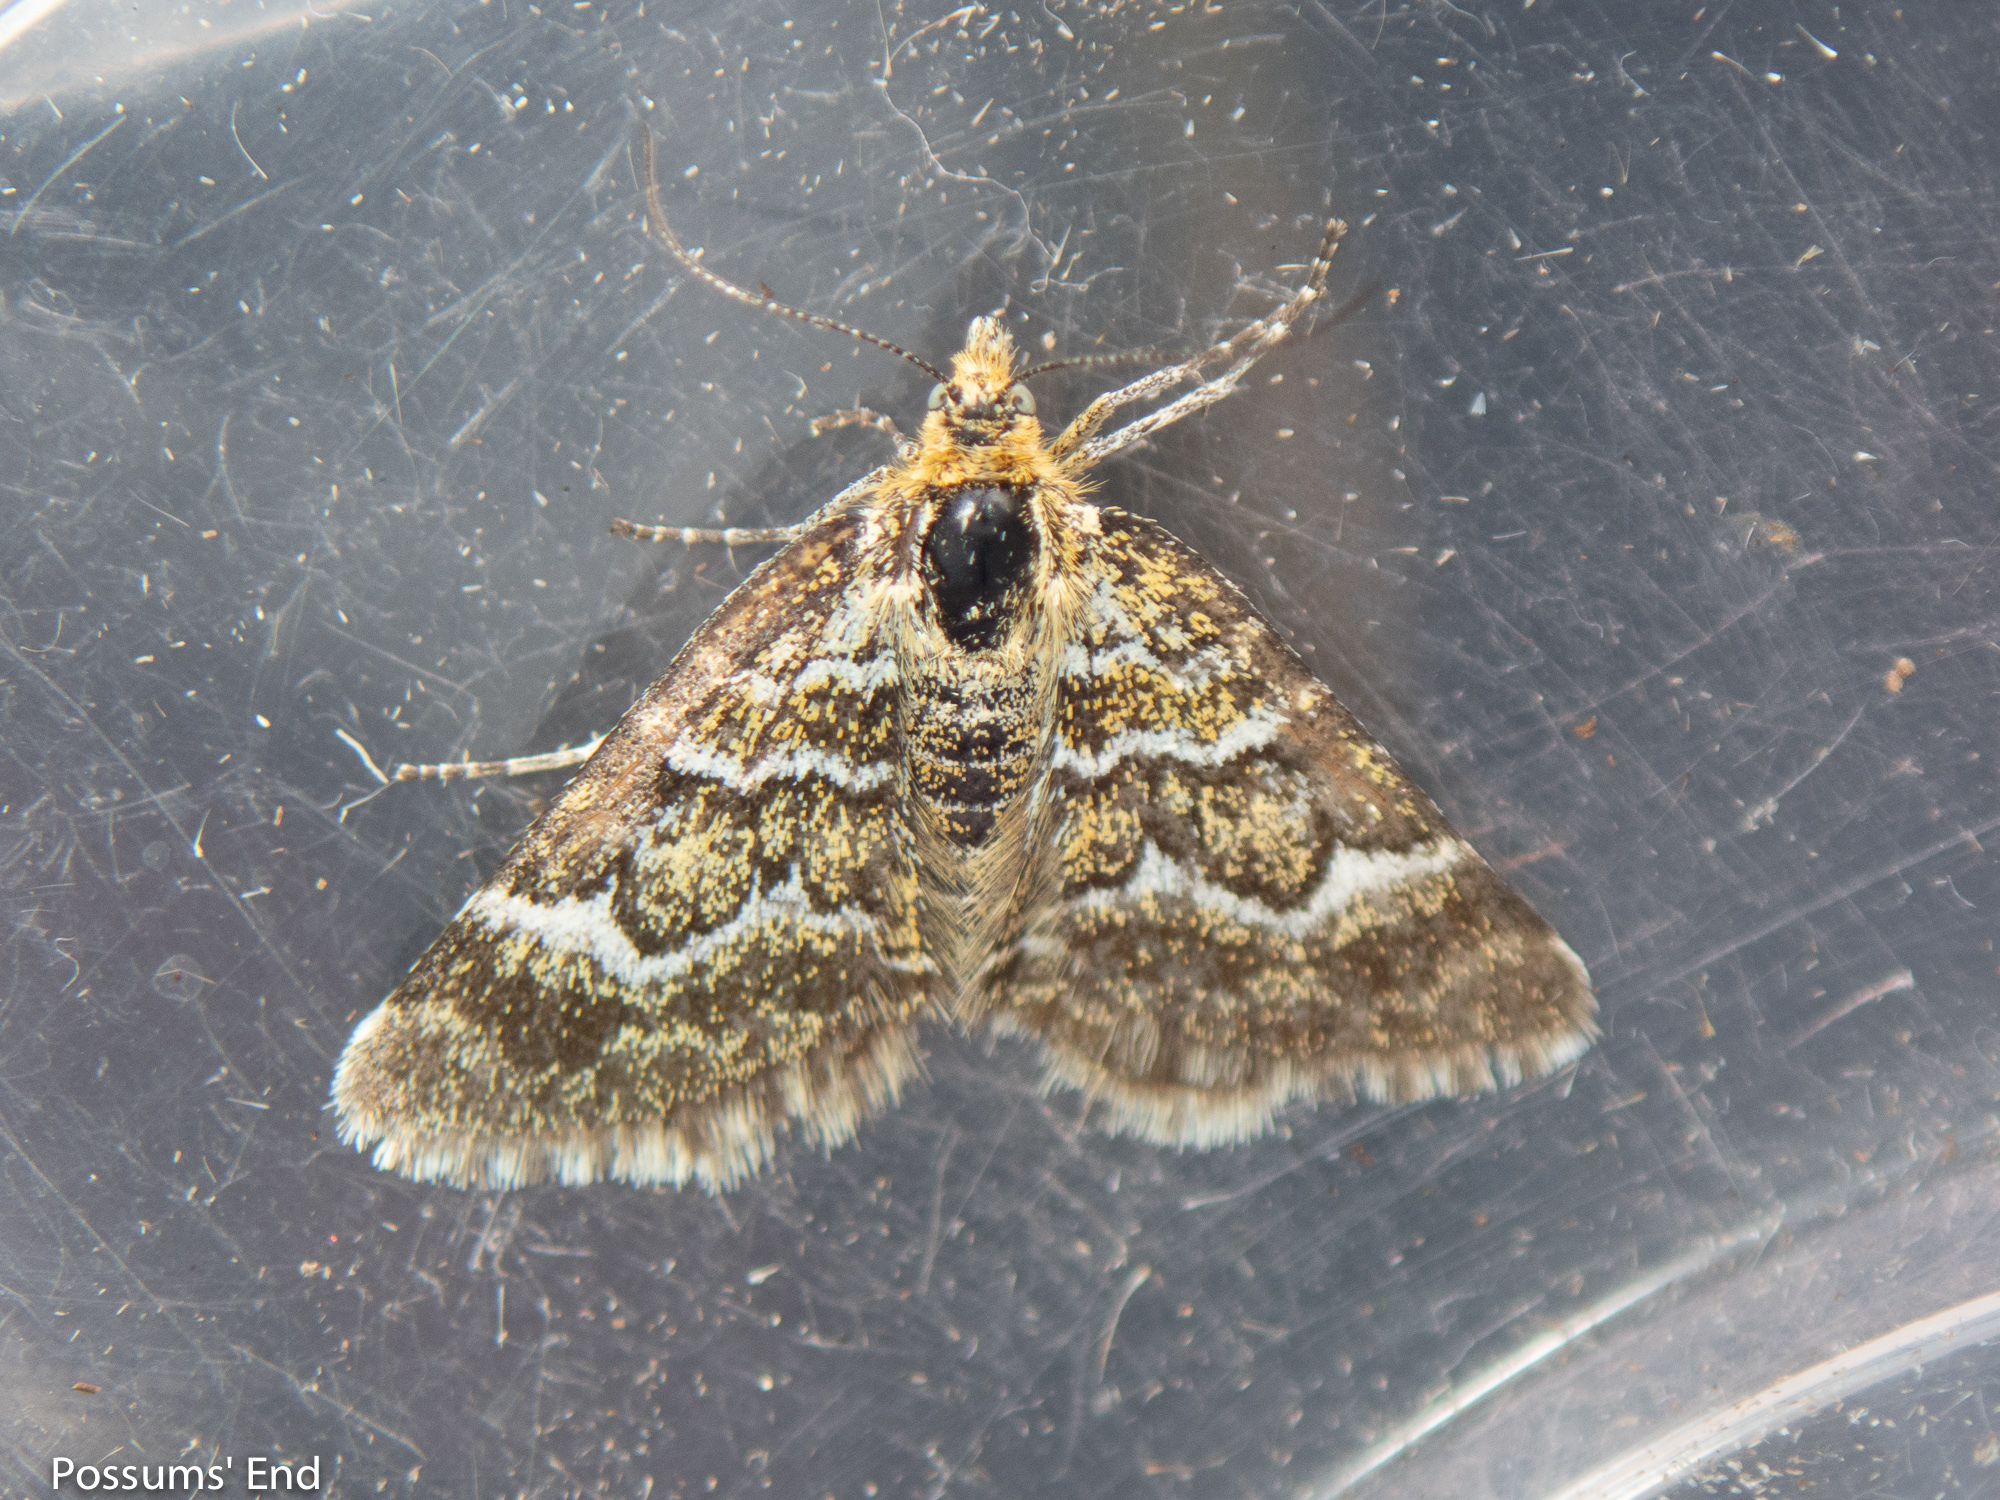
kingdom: Animalia
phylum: Arthropoda
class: Insecta
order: Lepidoptera
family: Geometridae
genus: Notoreas
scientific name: Notoreas paradelpha
